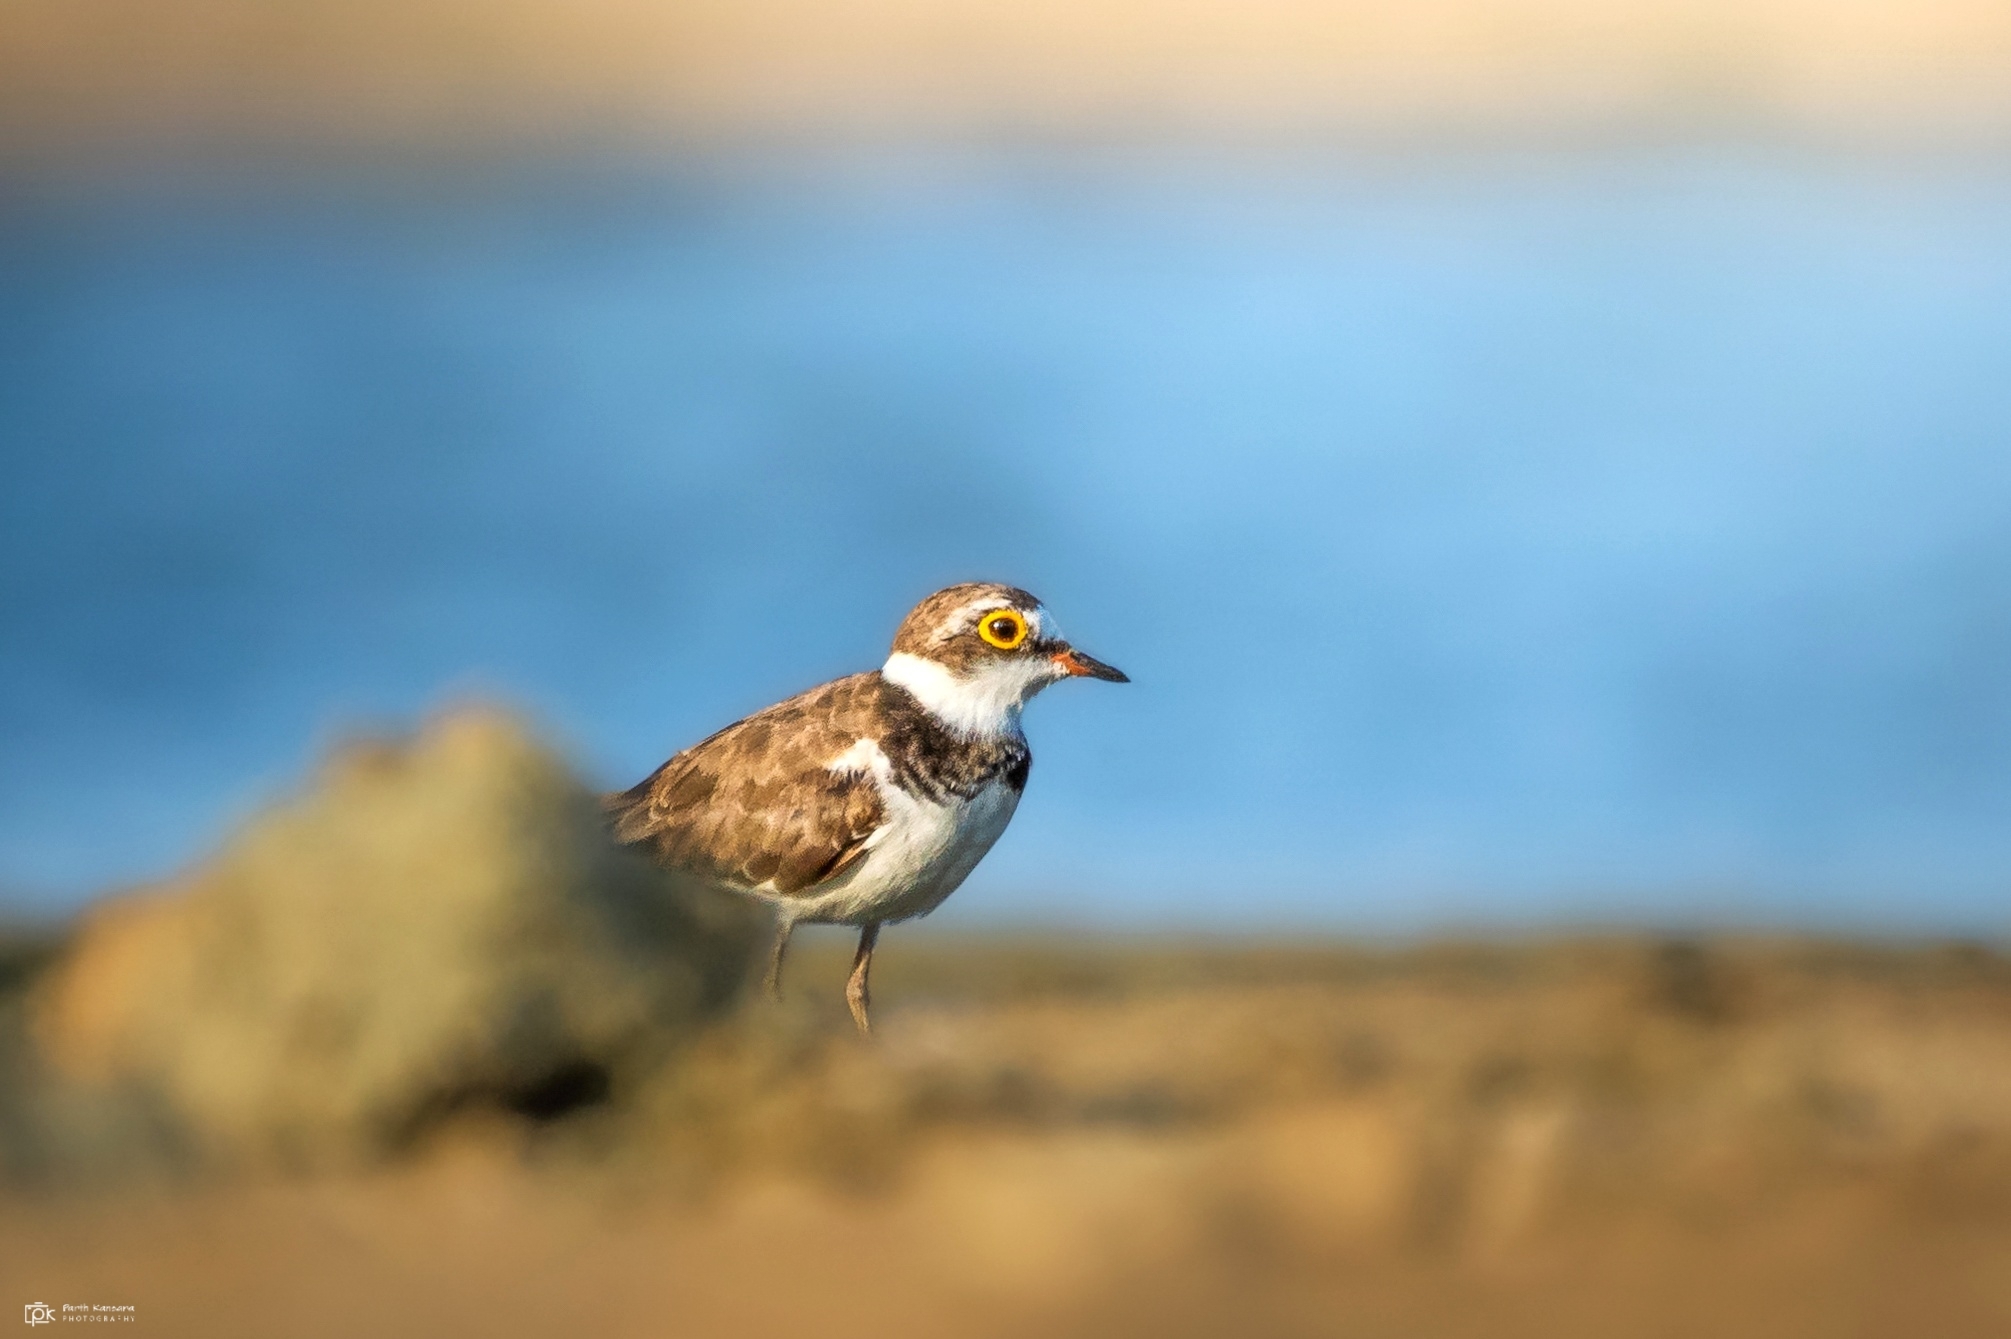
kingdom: Animalia
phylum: Chordata
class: Aves
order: Charadriiformes
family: Charadriidae
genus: Charadrius
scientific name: Charadrius dubius
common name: Little ringed plover
